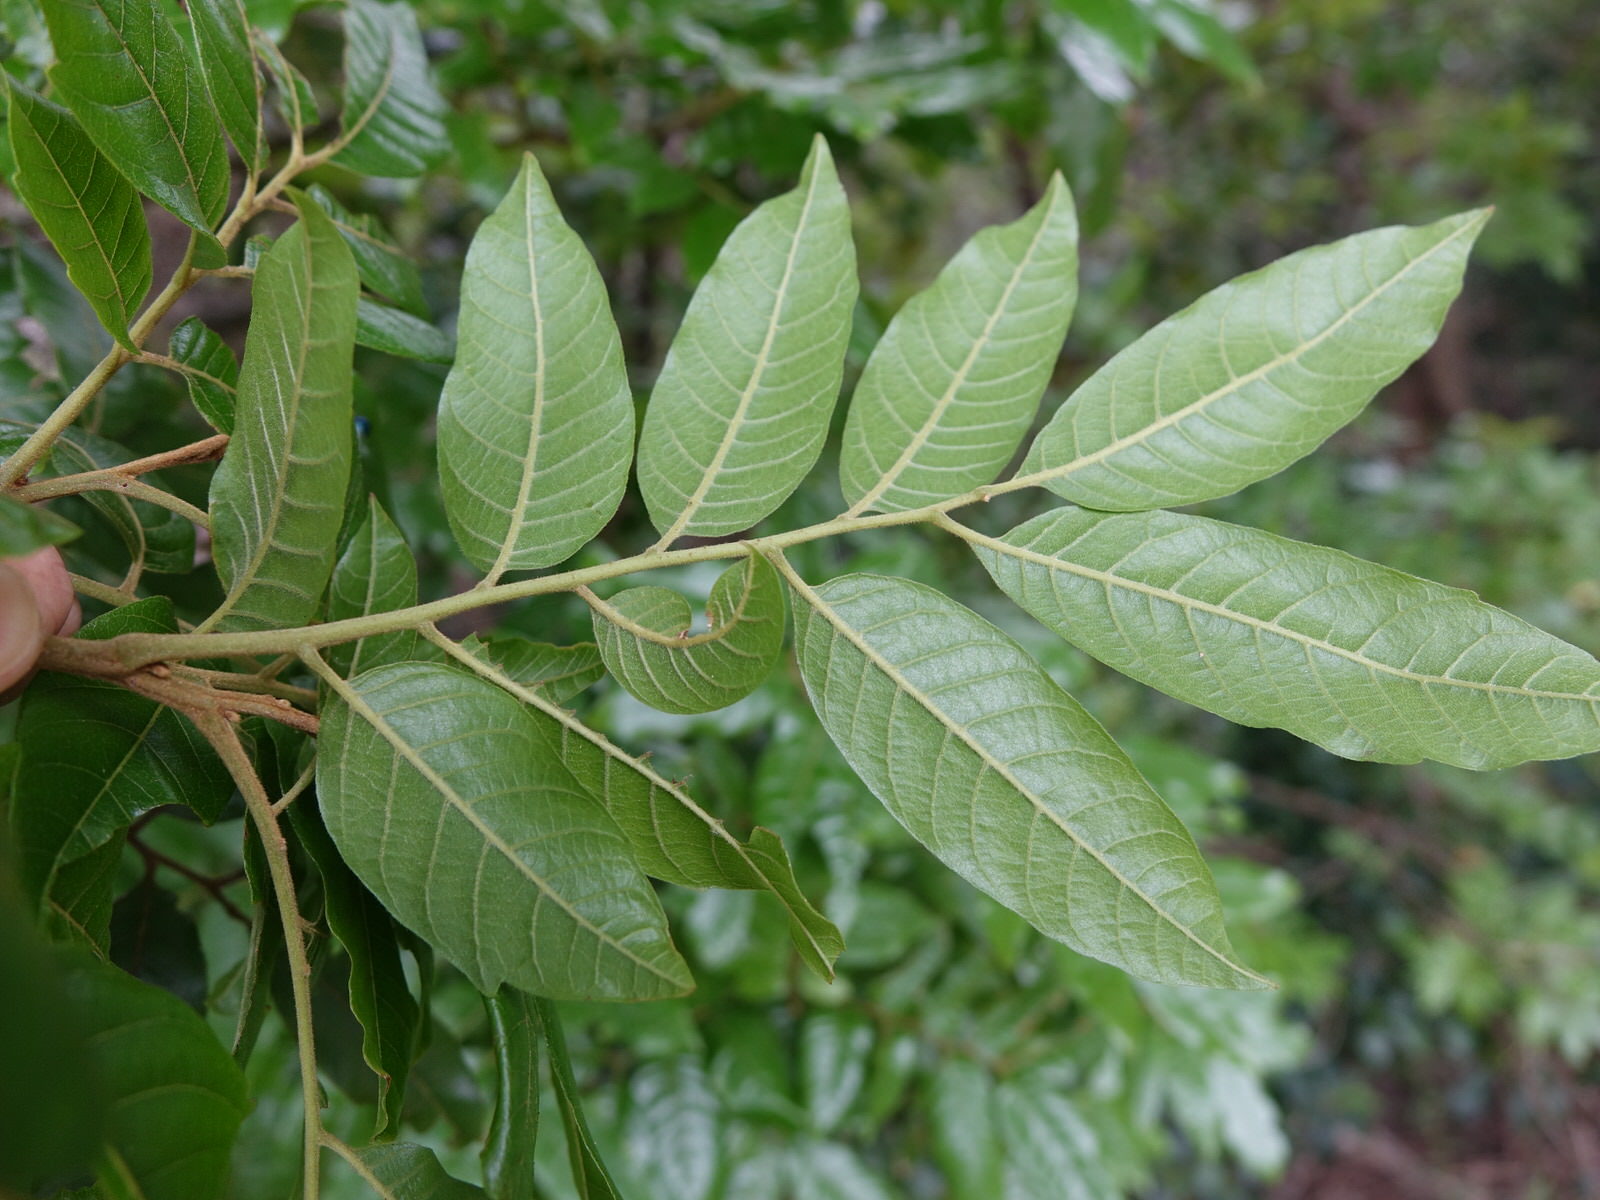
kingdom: Plantae
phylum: Tracheophyta
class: Magnoliopsida
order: Sapindales
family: Sapindaceae
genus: Alectryon
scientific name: Alectryon excelsus
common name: Three kings titoki
